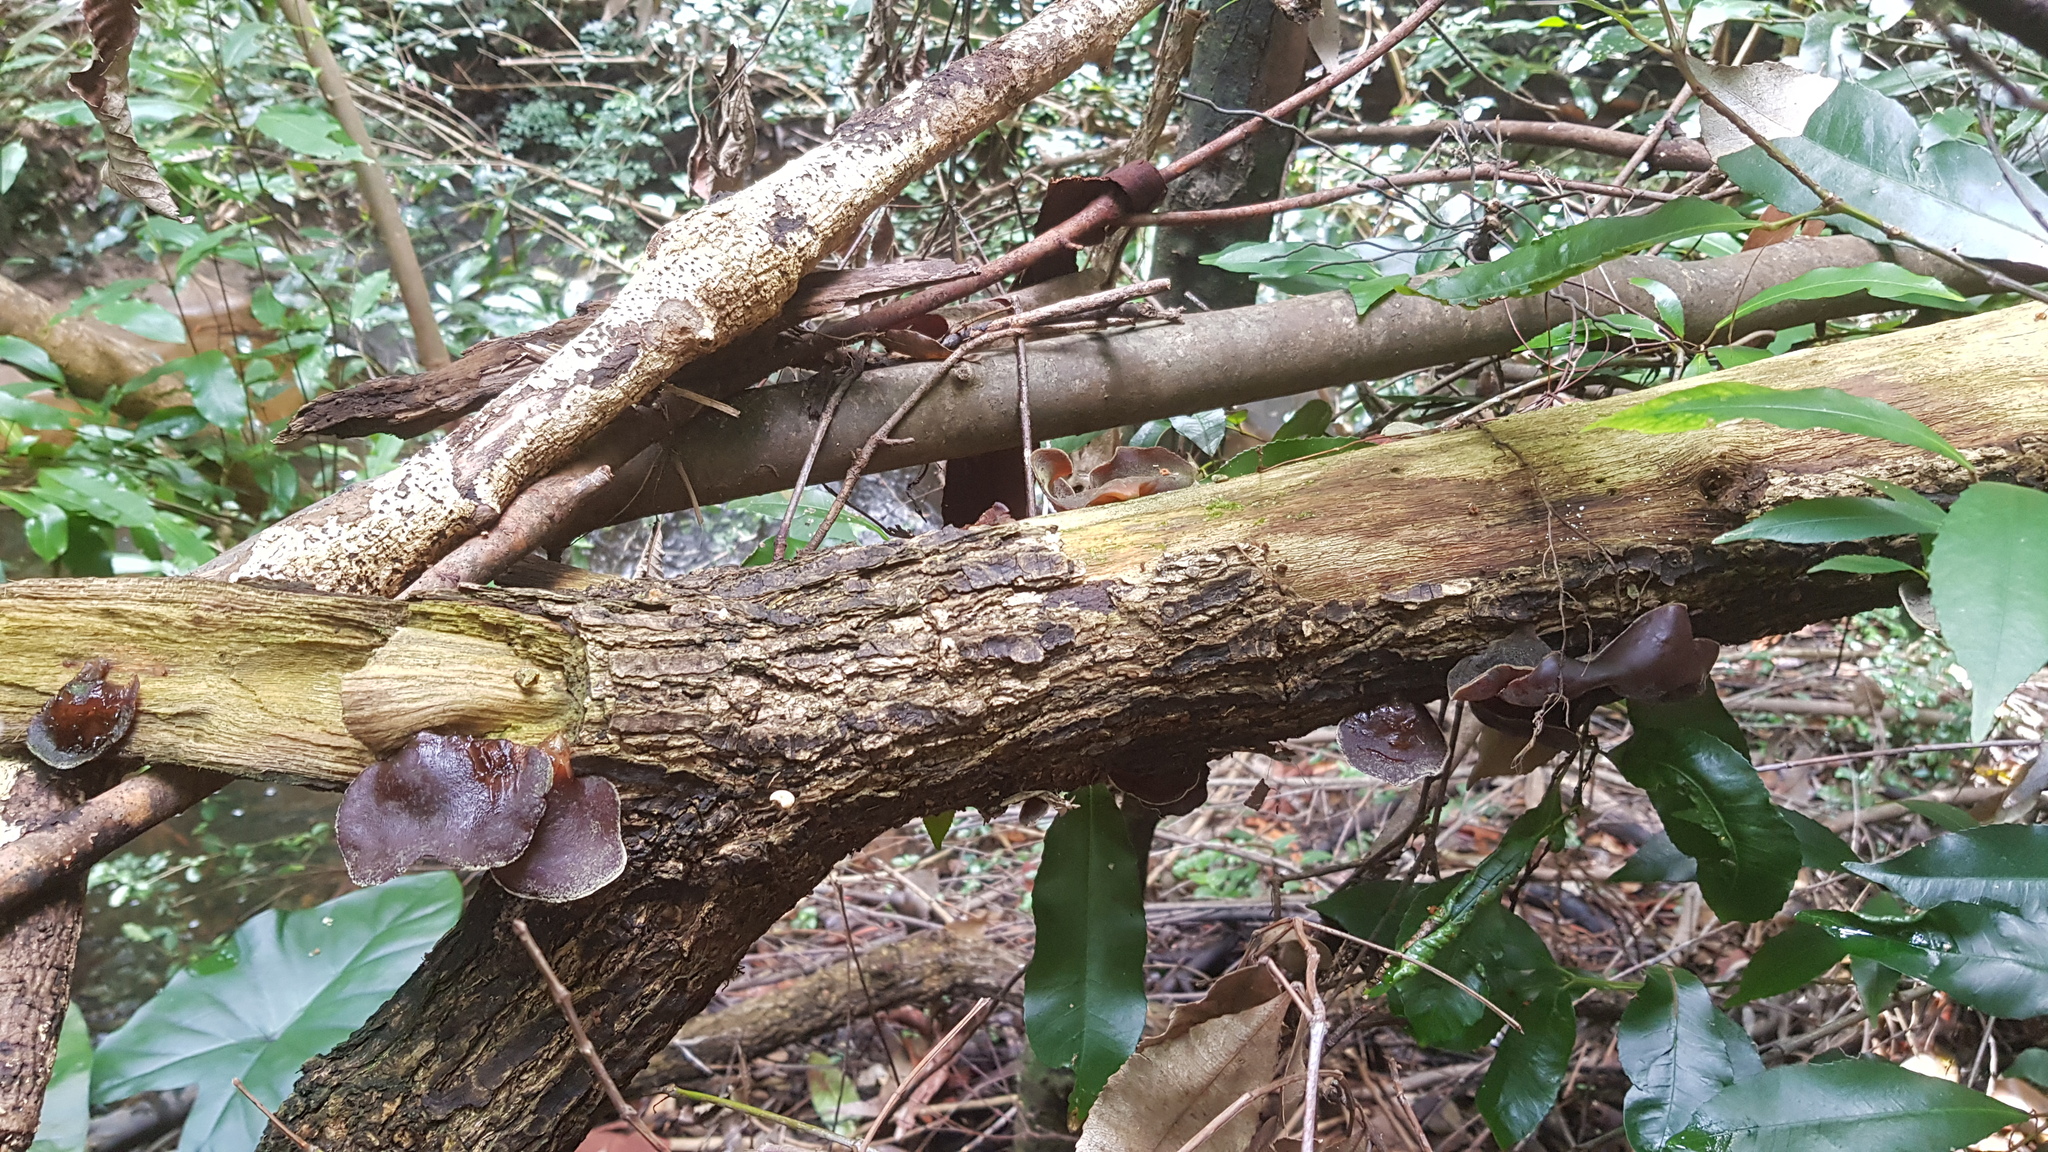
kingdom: Fungi
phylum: Basidiomycota
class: Agaricomycetes
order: Auriculariales
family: Auriculariaceae
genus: Auricularia
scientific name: Auricularia cornea
